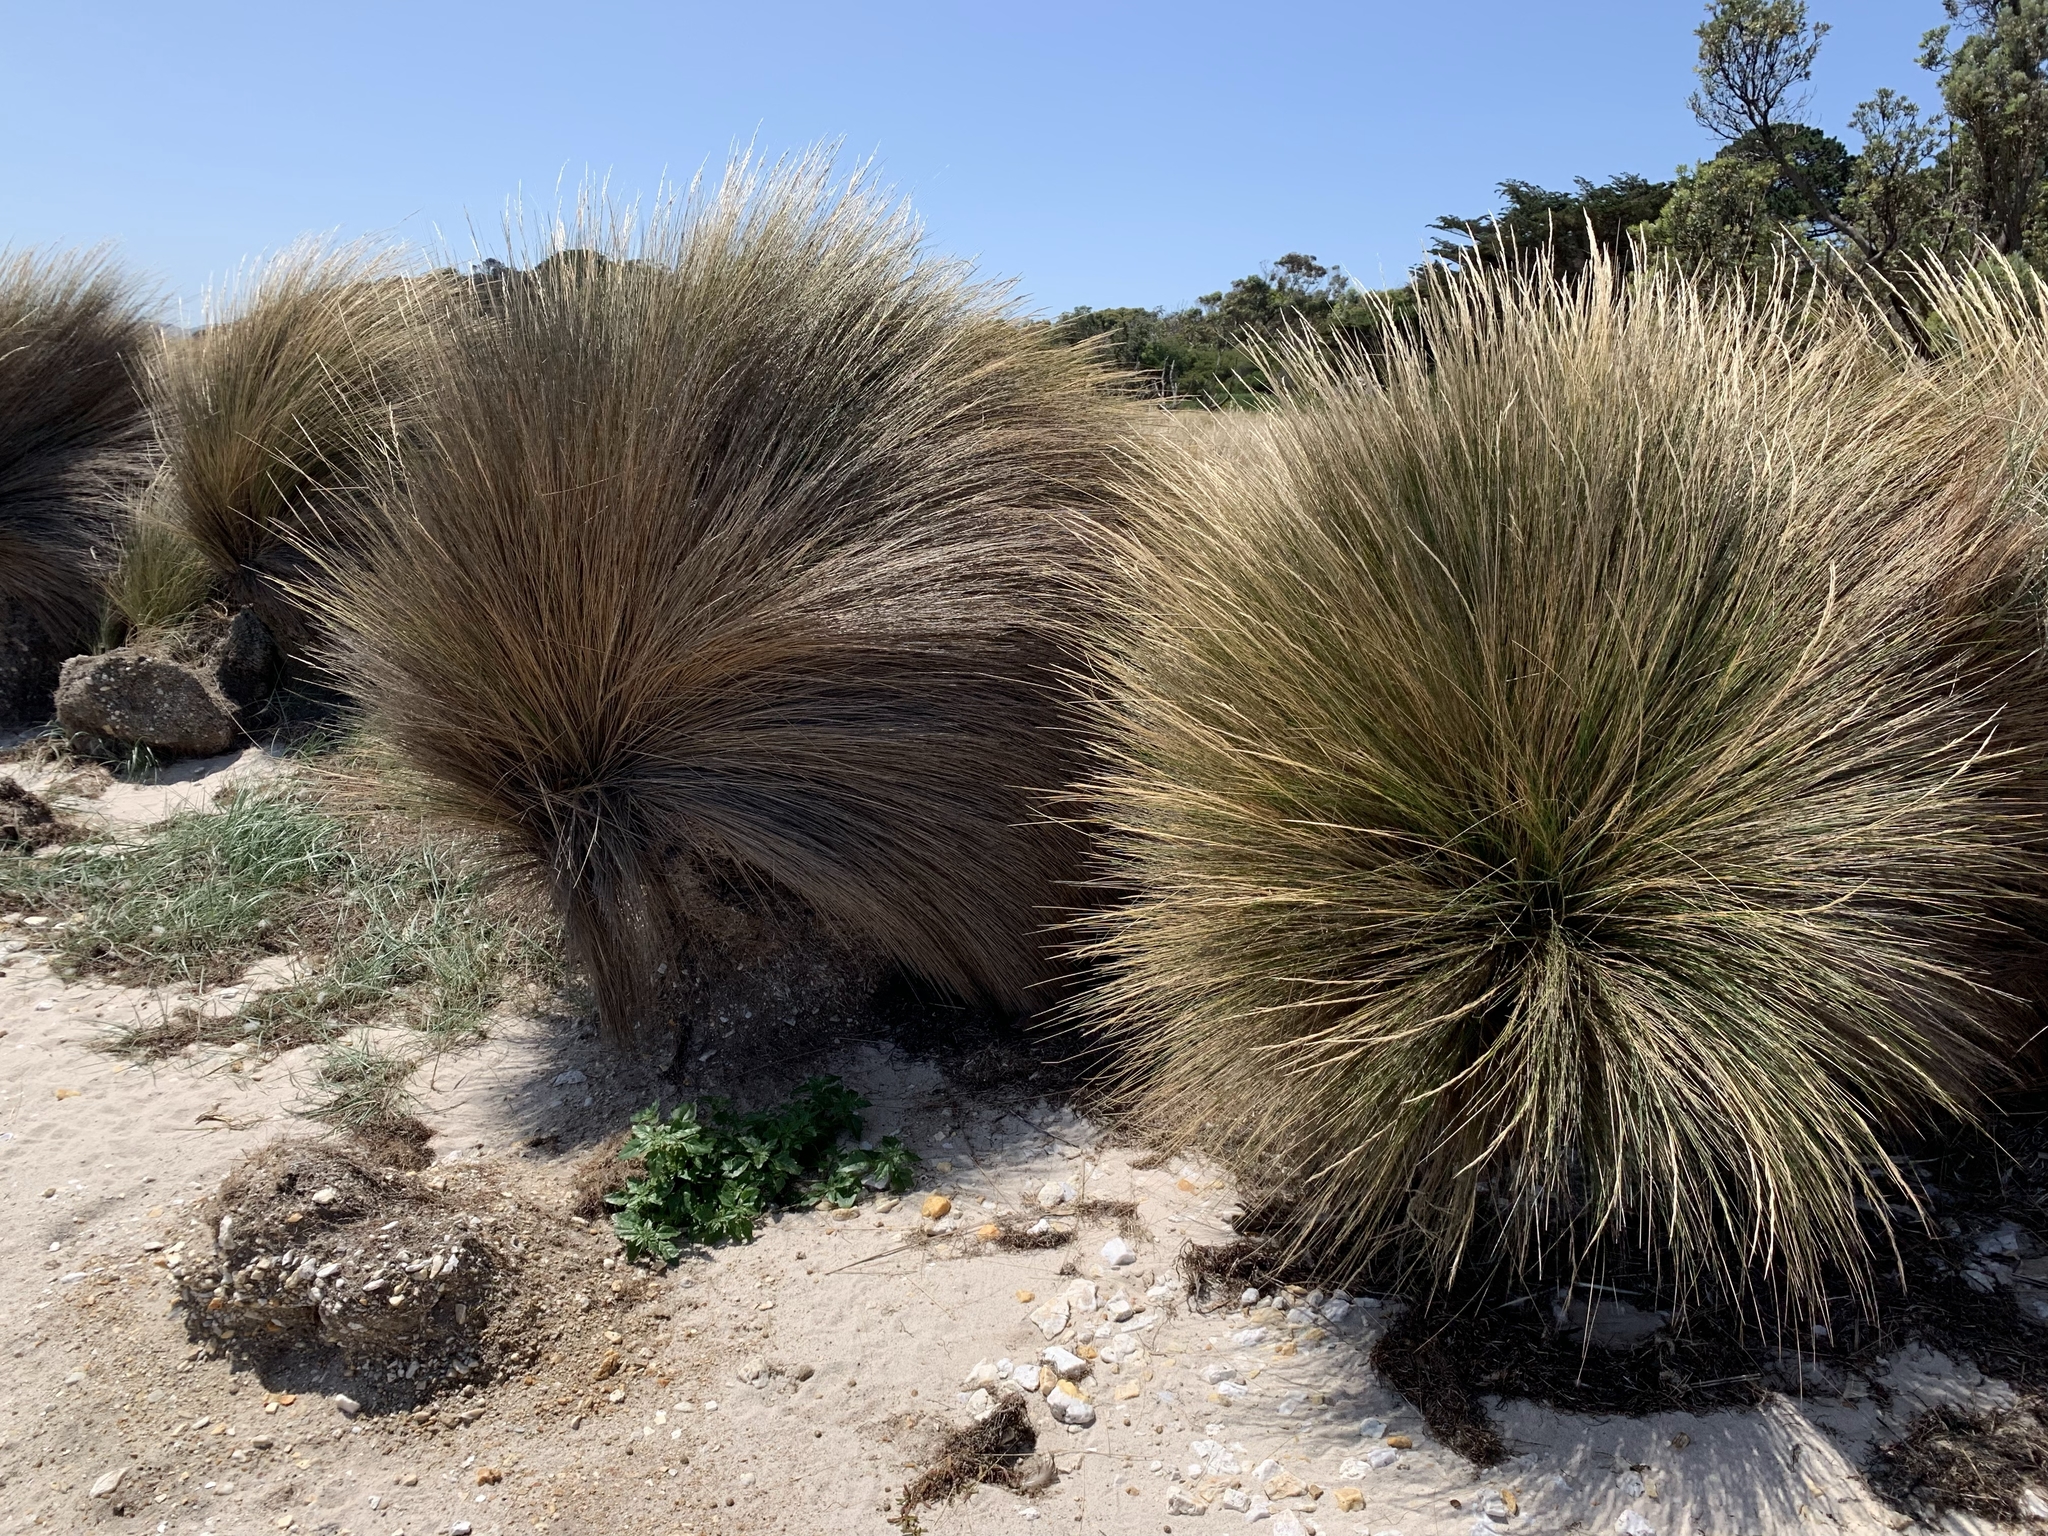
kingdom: Plantae
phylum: Tracheophyta
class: Liliopsida
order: Poales
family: Poaceae
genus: Austrostipa
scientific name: Austrostipa stipoides
